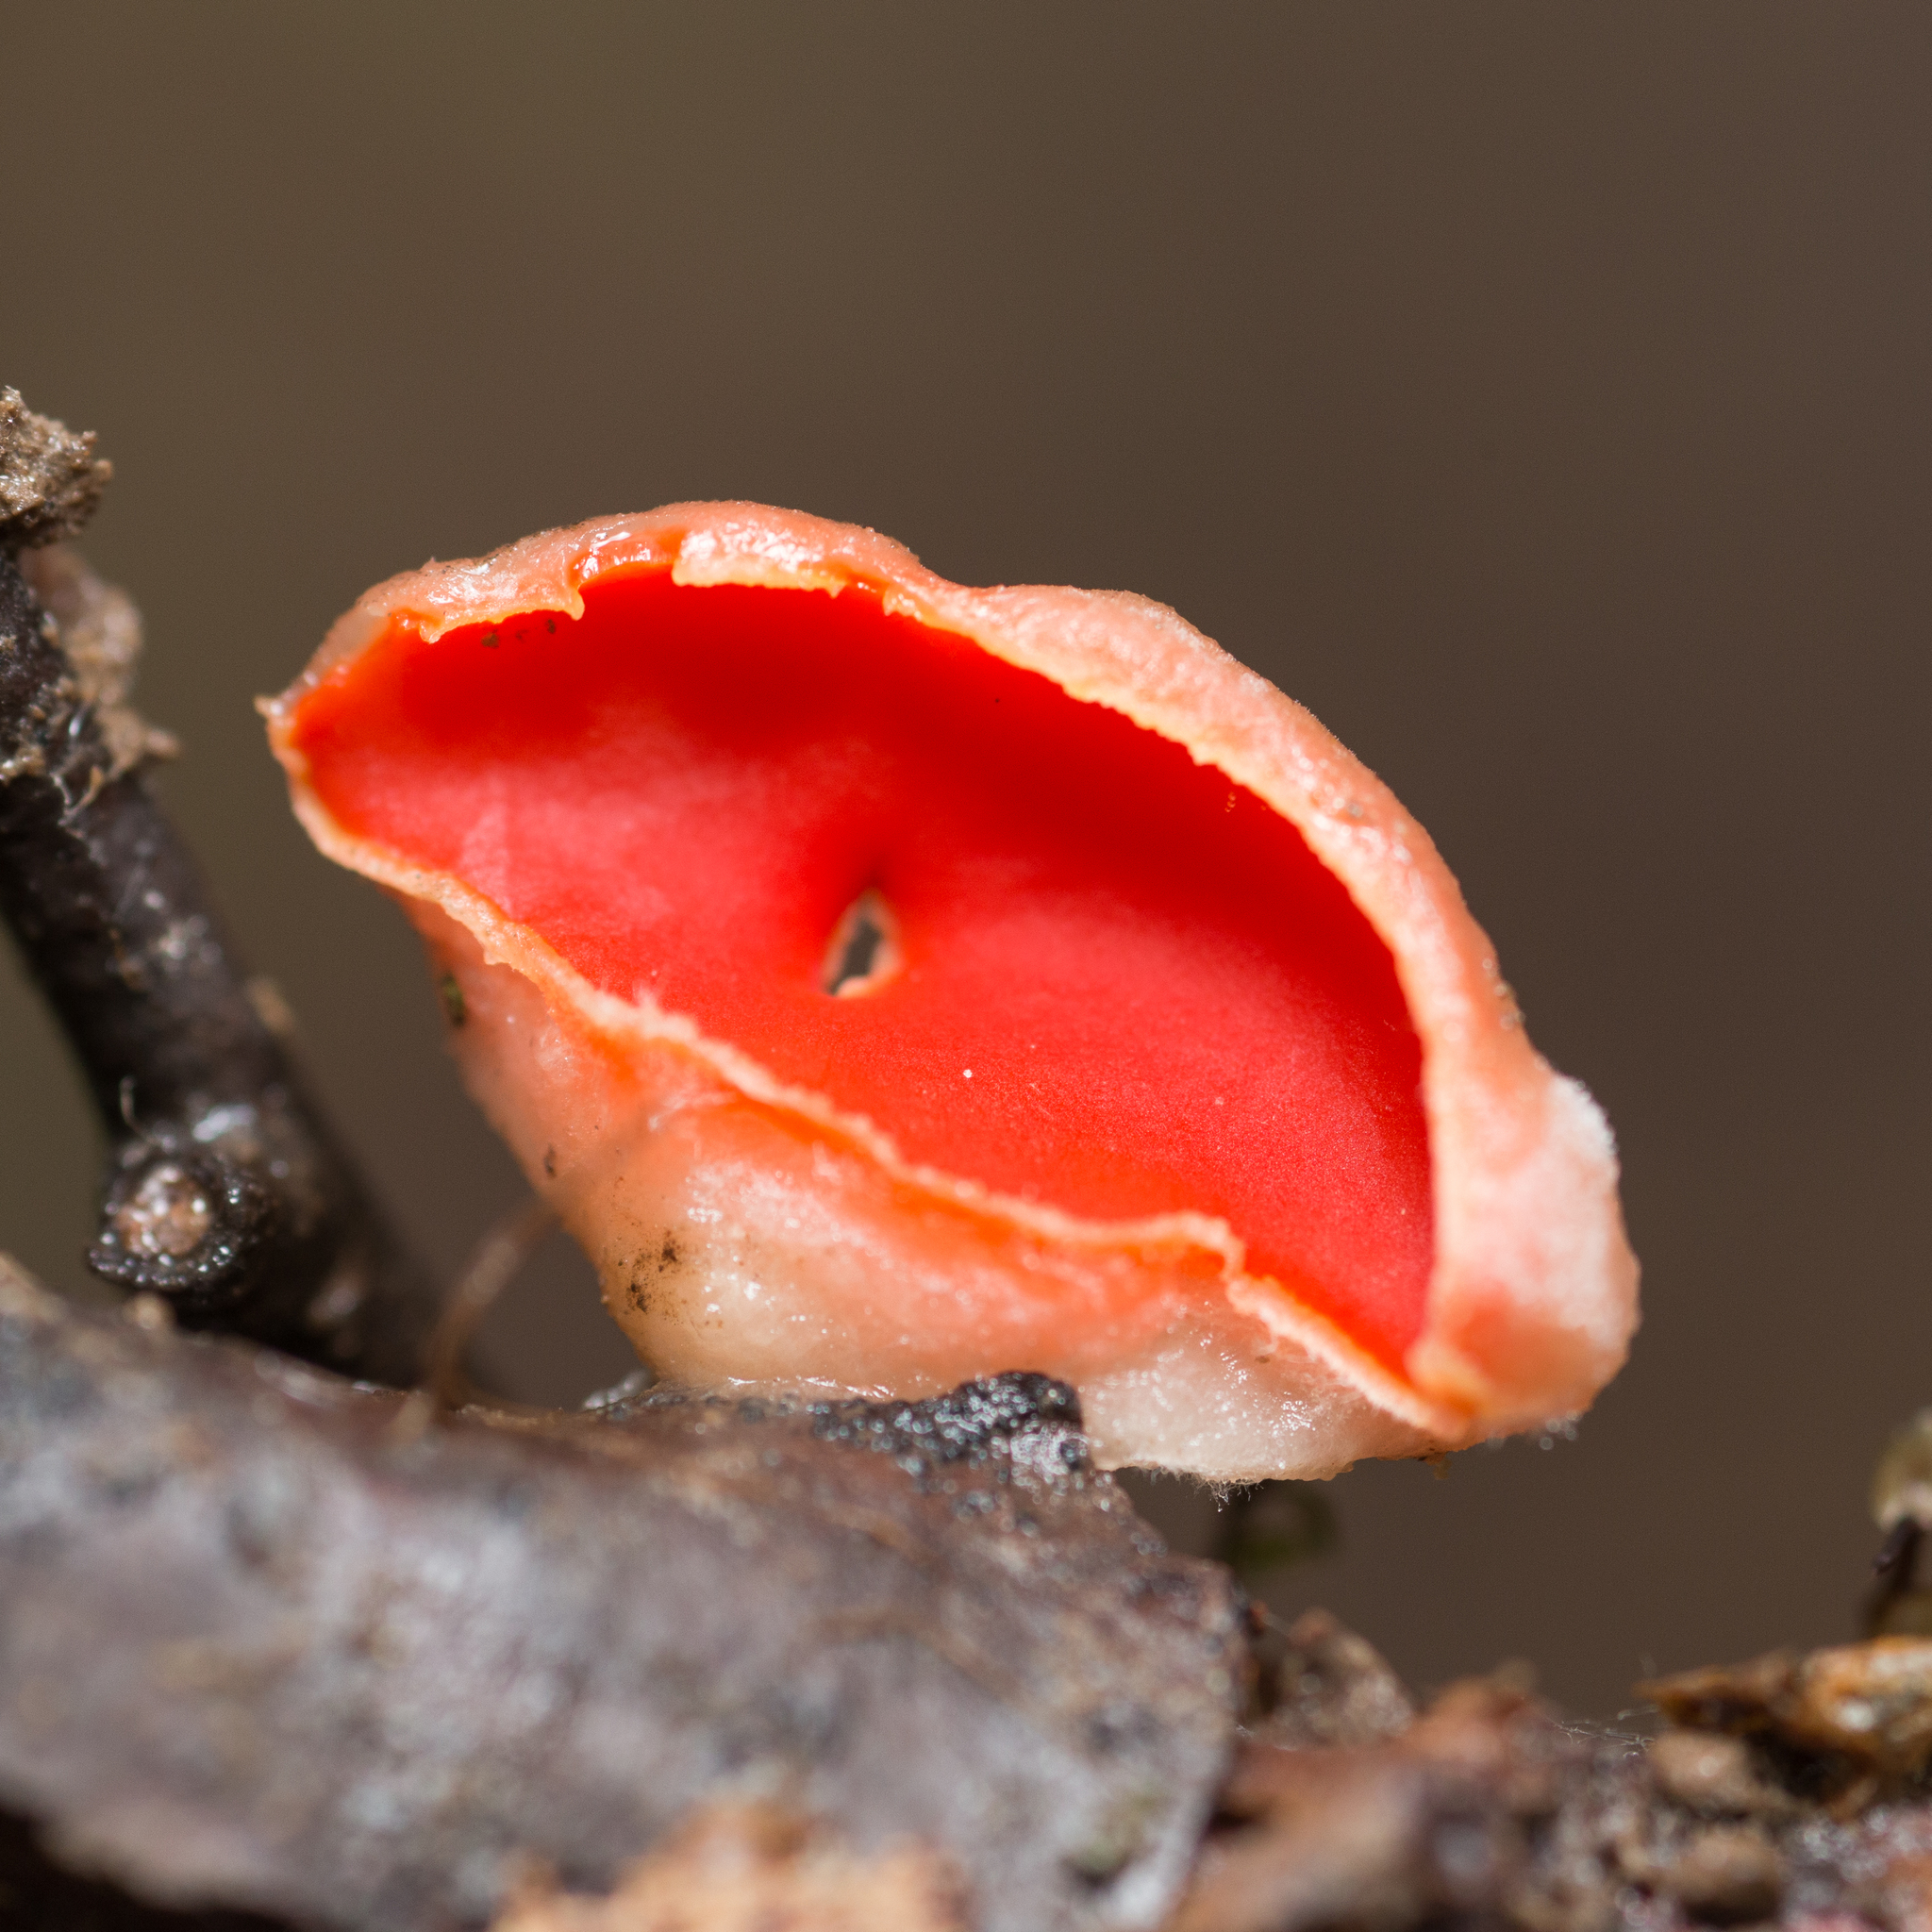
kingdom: Fungi
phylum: Ascomycota
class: Pezizomycetes
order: Pezizales
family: Sarcoscyphaceae
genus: Sarcoscypha
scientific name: Sarcoscypha austriaca
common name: Scarlet elfcup
